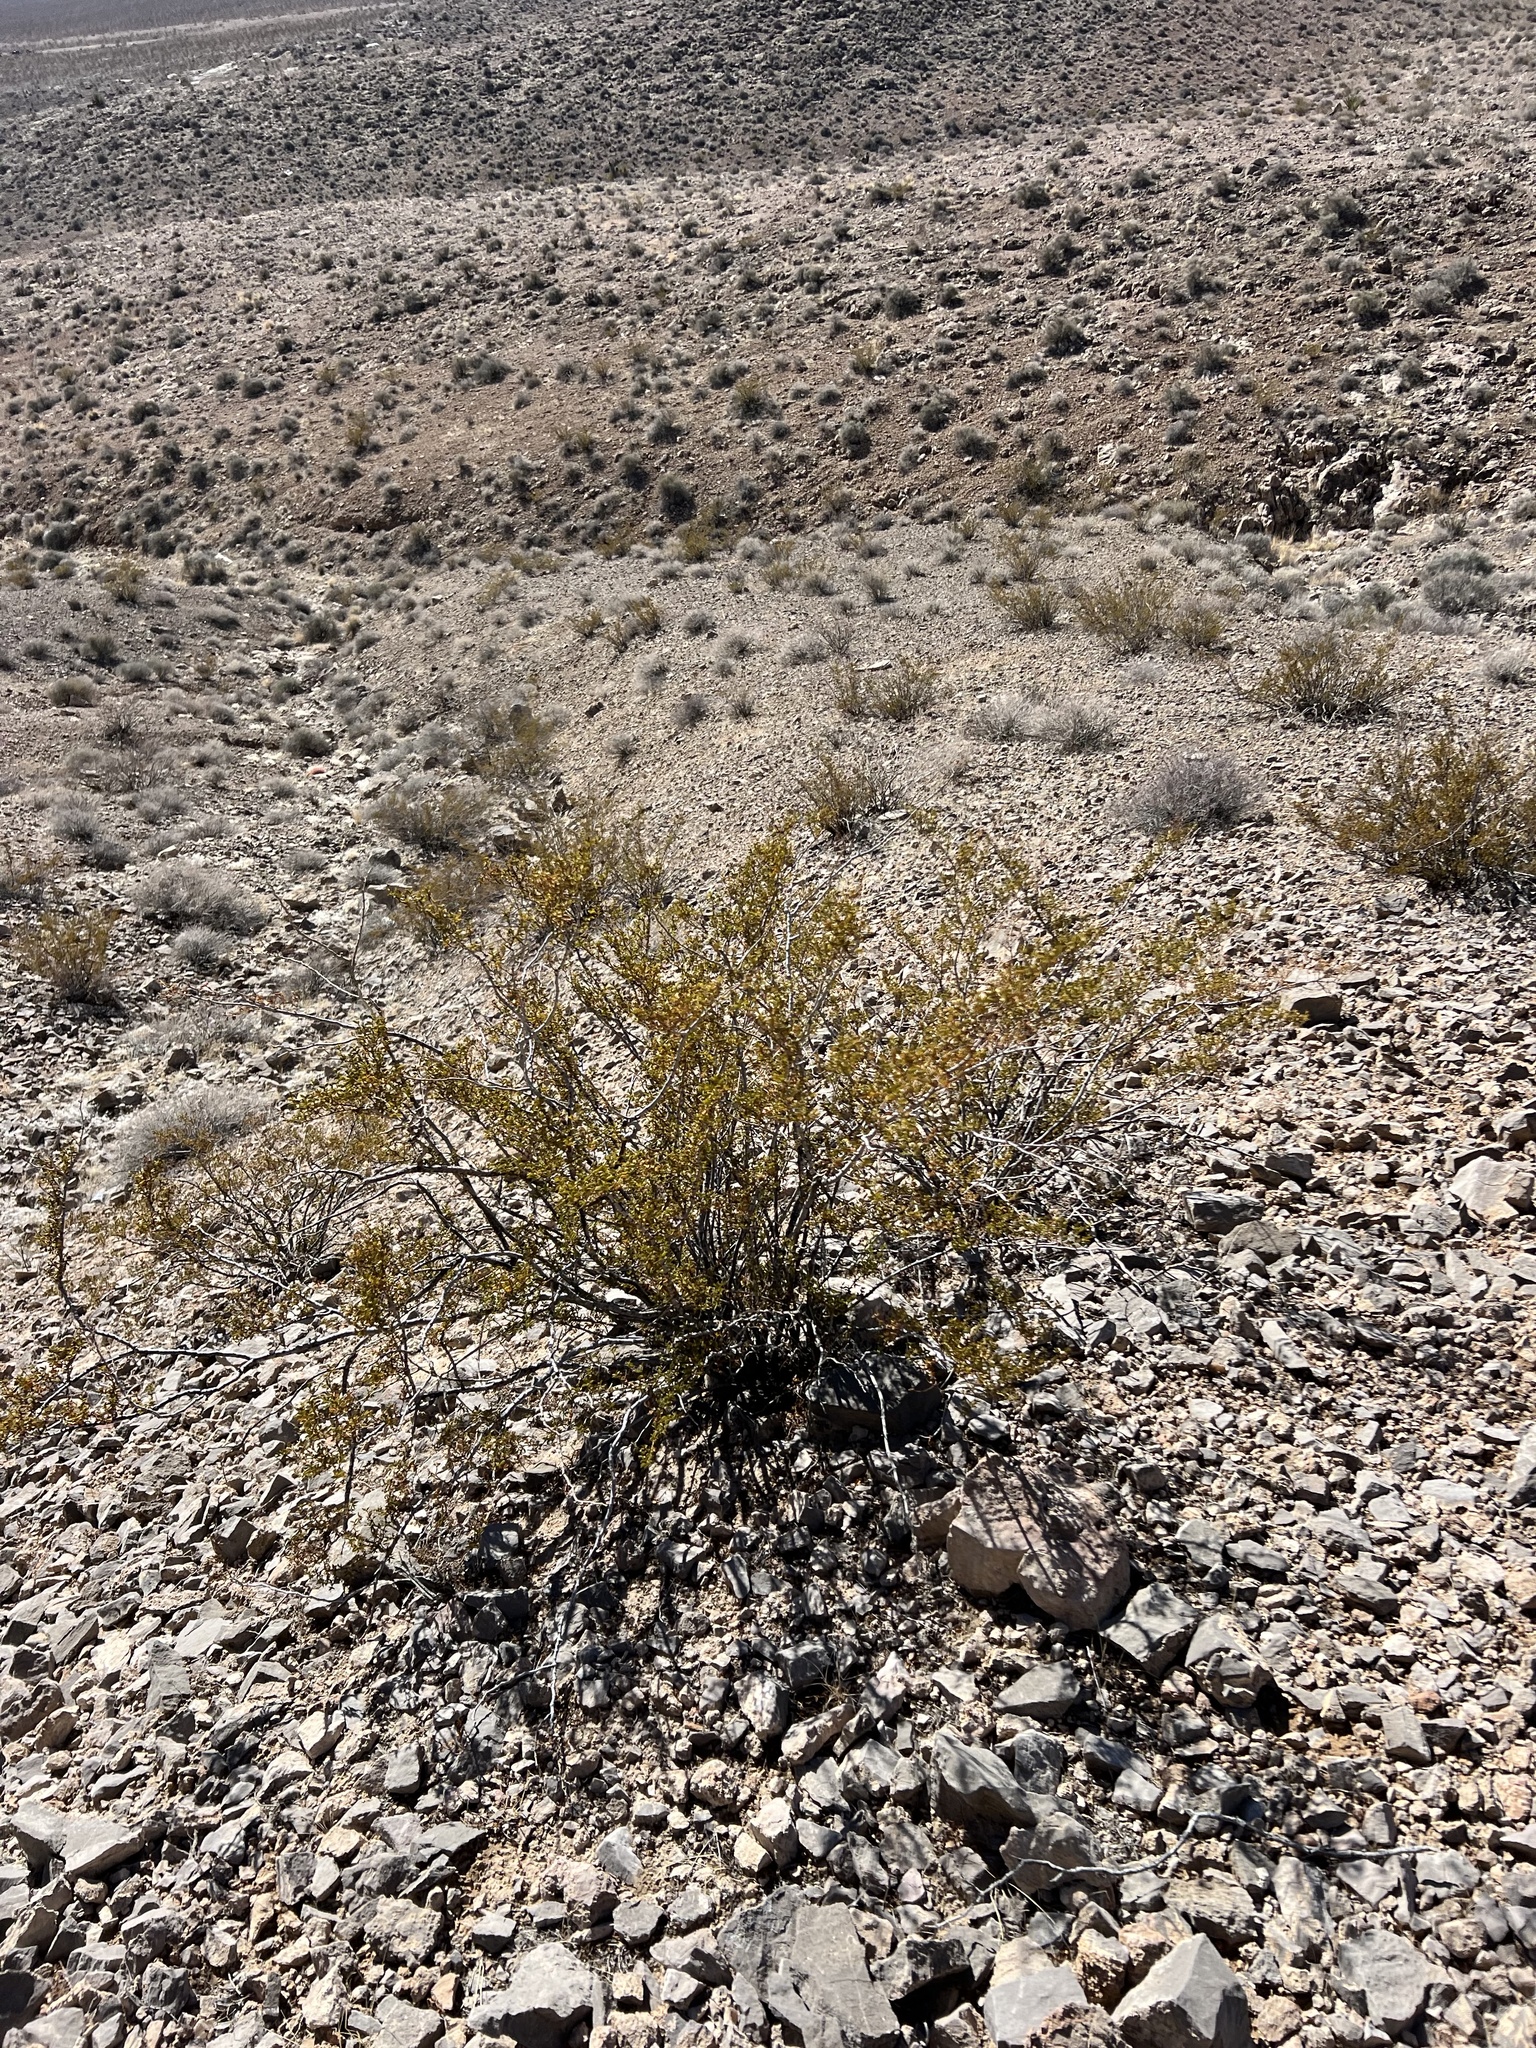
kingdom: Plantae
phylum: Tracheophyta
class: Magnoliopsida
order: Zygophyllales
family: Zygophyllaceae
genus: Larrea
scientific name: Larrea tridentata
